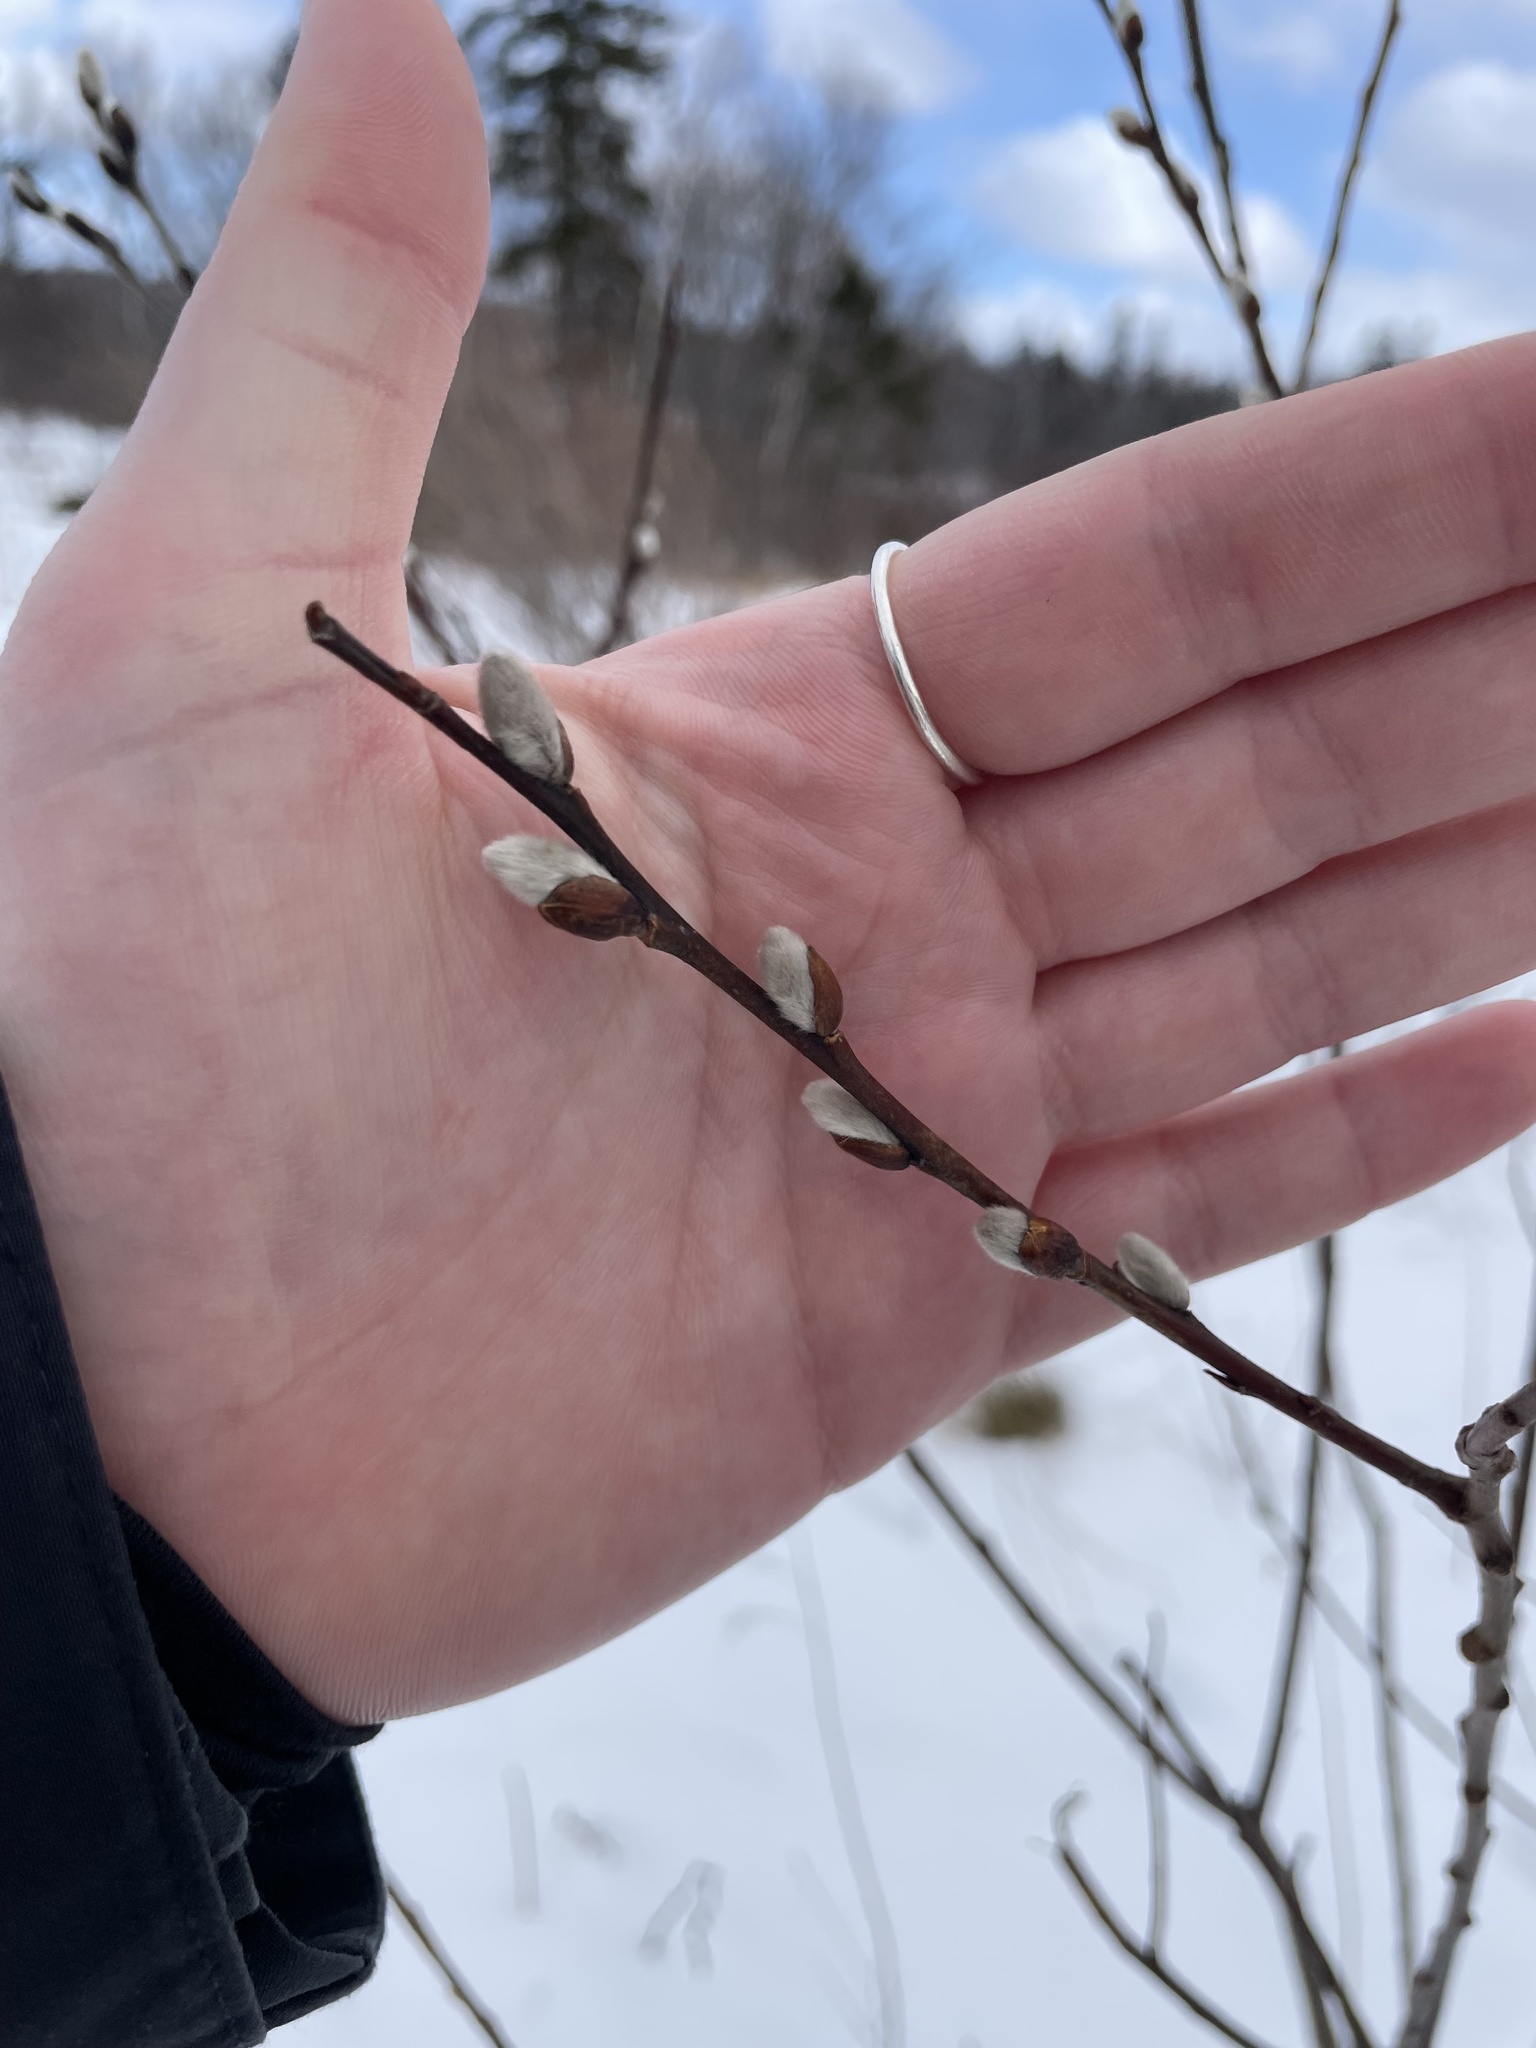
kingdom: Plantae
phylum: Tracheophyta
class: Magnoliopsida
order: Malpighiales
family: Salicaceae
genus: Salix
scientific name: Salix discolor
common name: Glaucous willow
